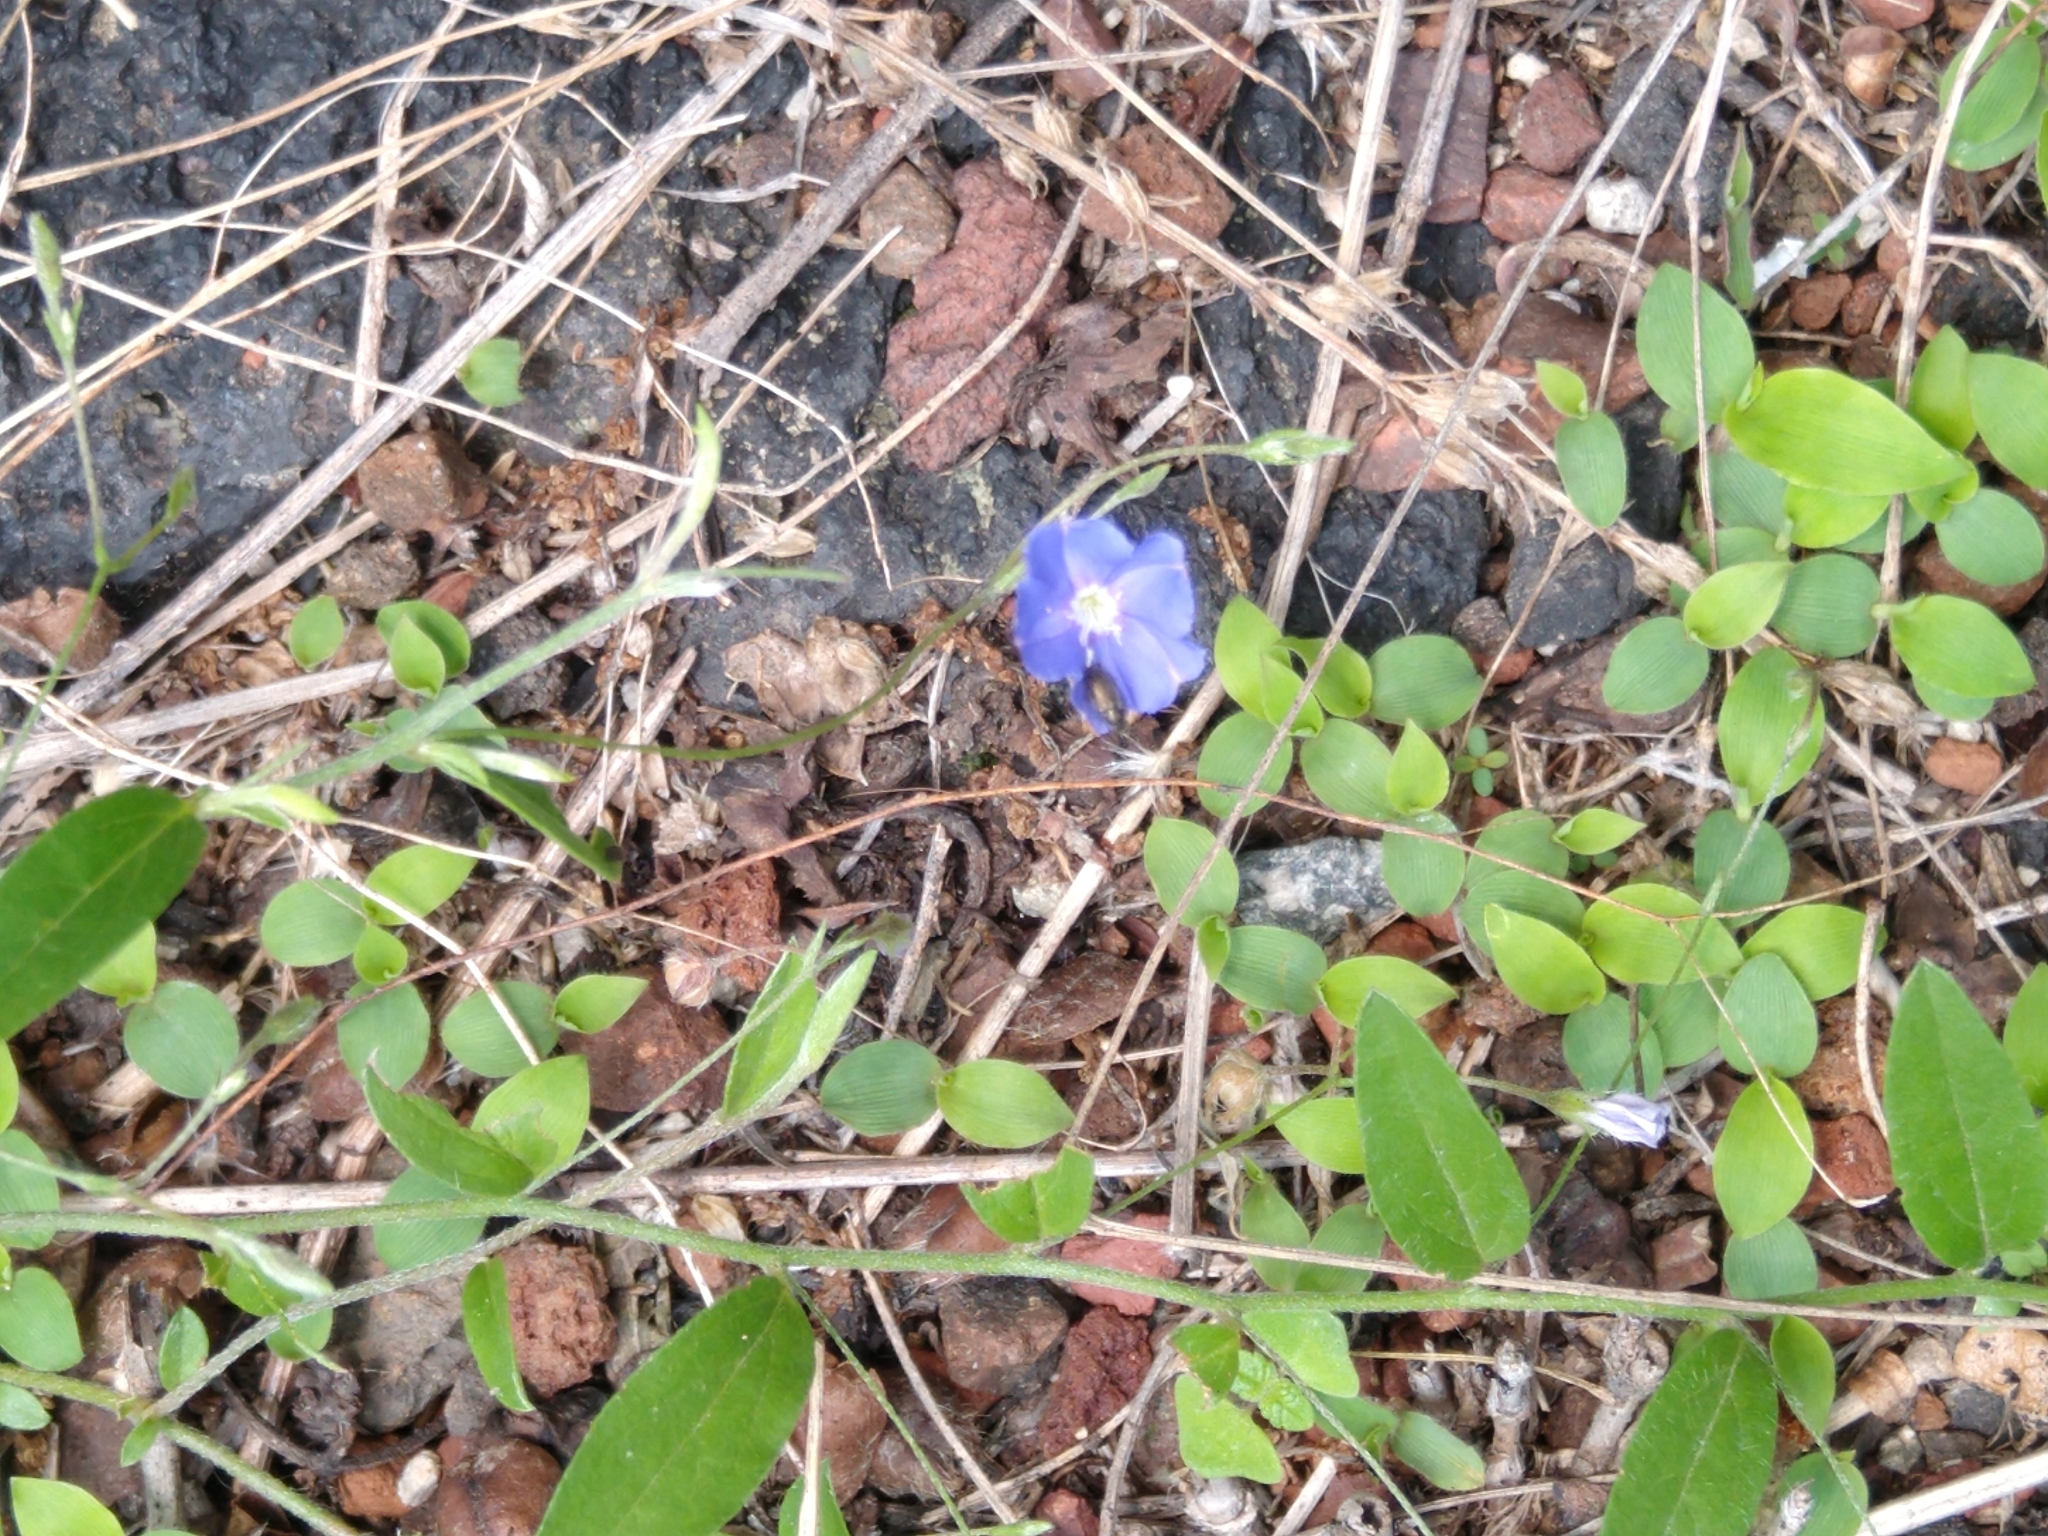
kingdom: Plantae
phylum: Tracheophyta
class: Magnoliopsida
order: Solanales
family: Convolvulaceae
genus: Evolvulus
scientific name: Evolvulus alsinoides
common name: Slender dwarf morning-glory
